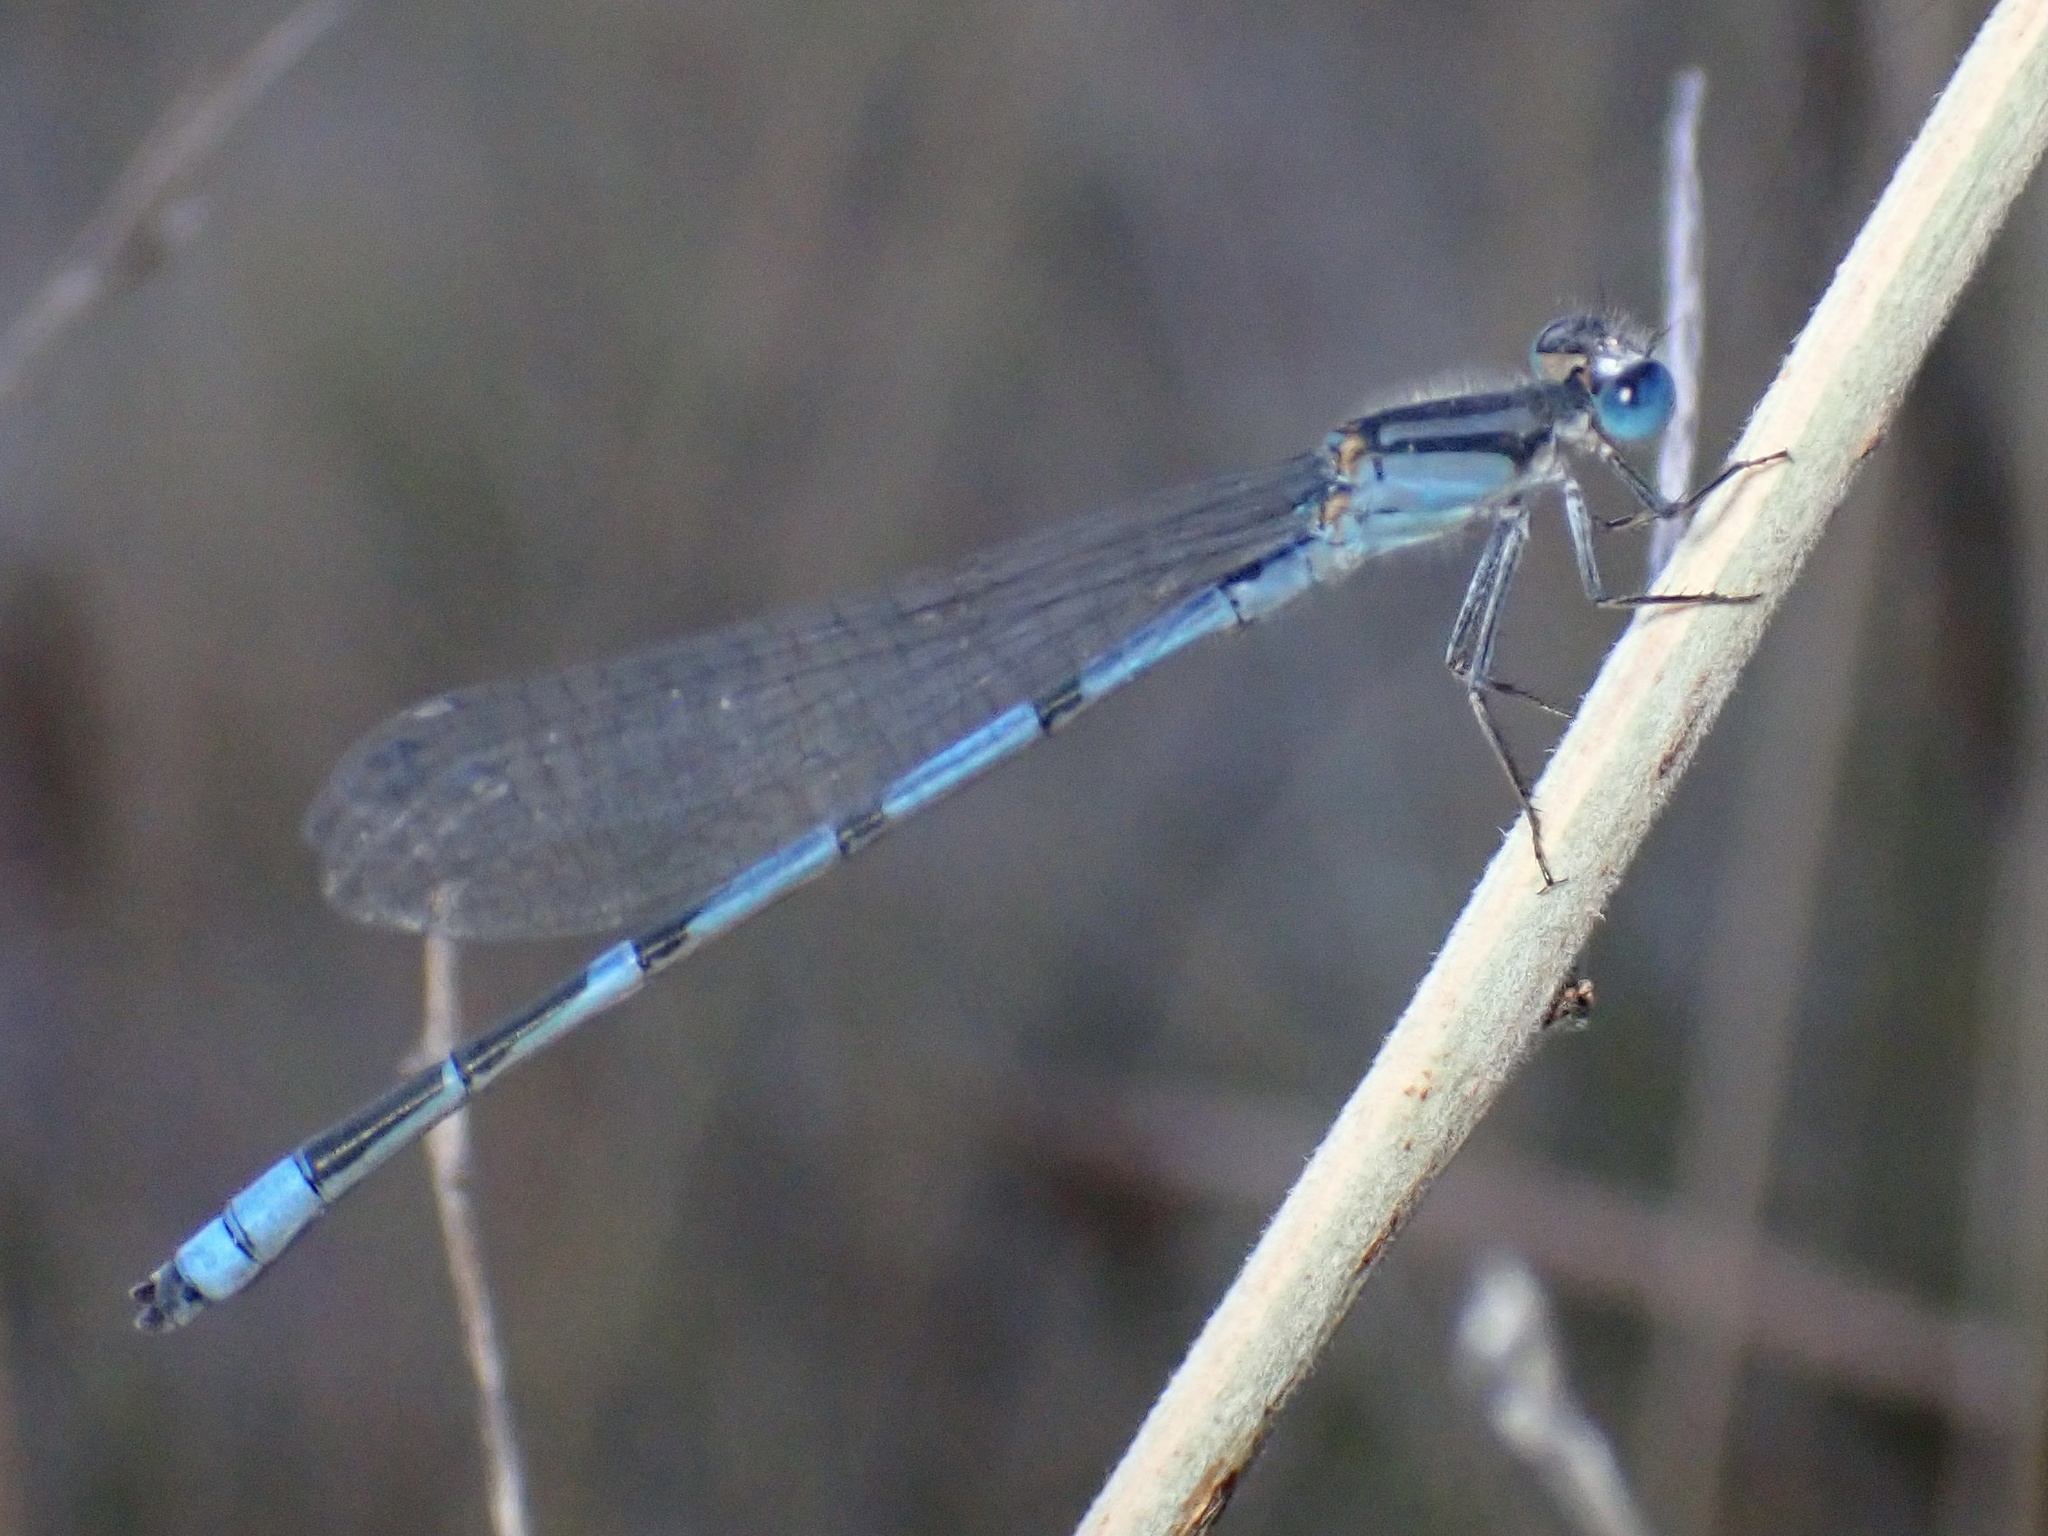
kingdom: Animalia
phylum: Arthropoda
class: Insecta
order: Odonata
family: Coenagrionidae
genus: Enallagma
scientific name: Enallagma civile
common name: Damselfly
